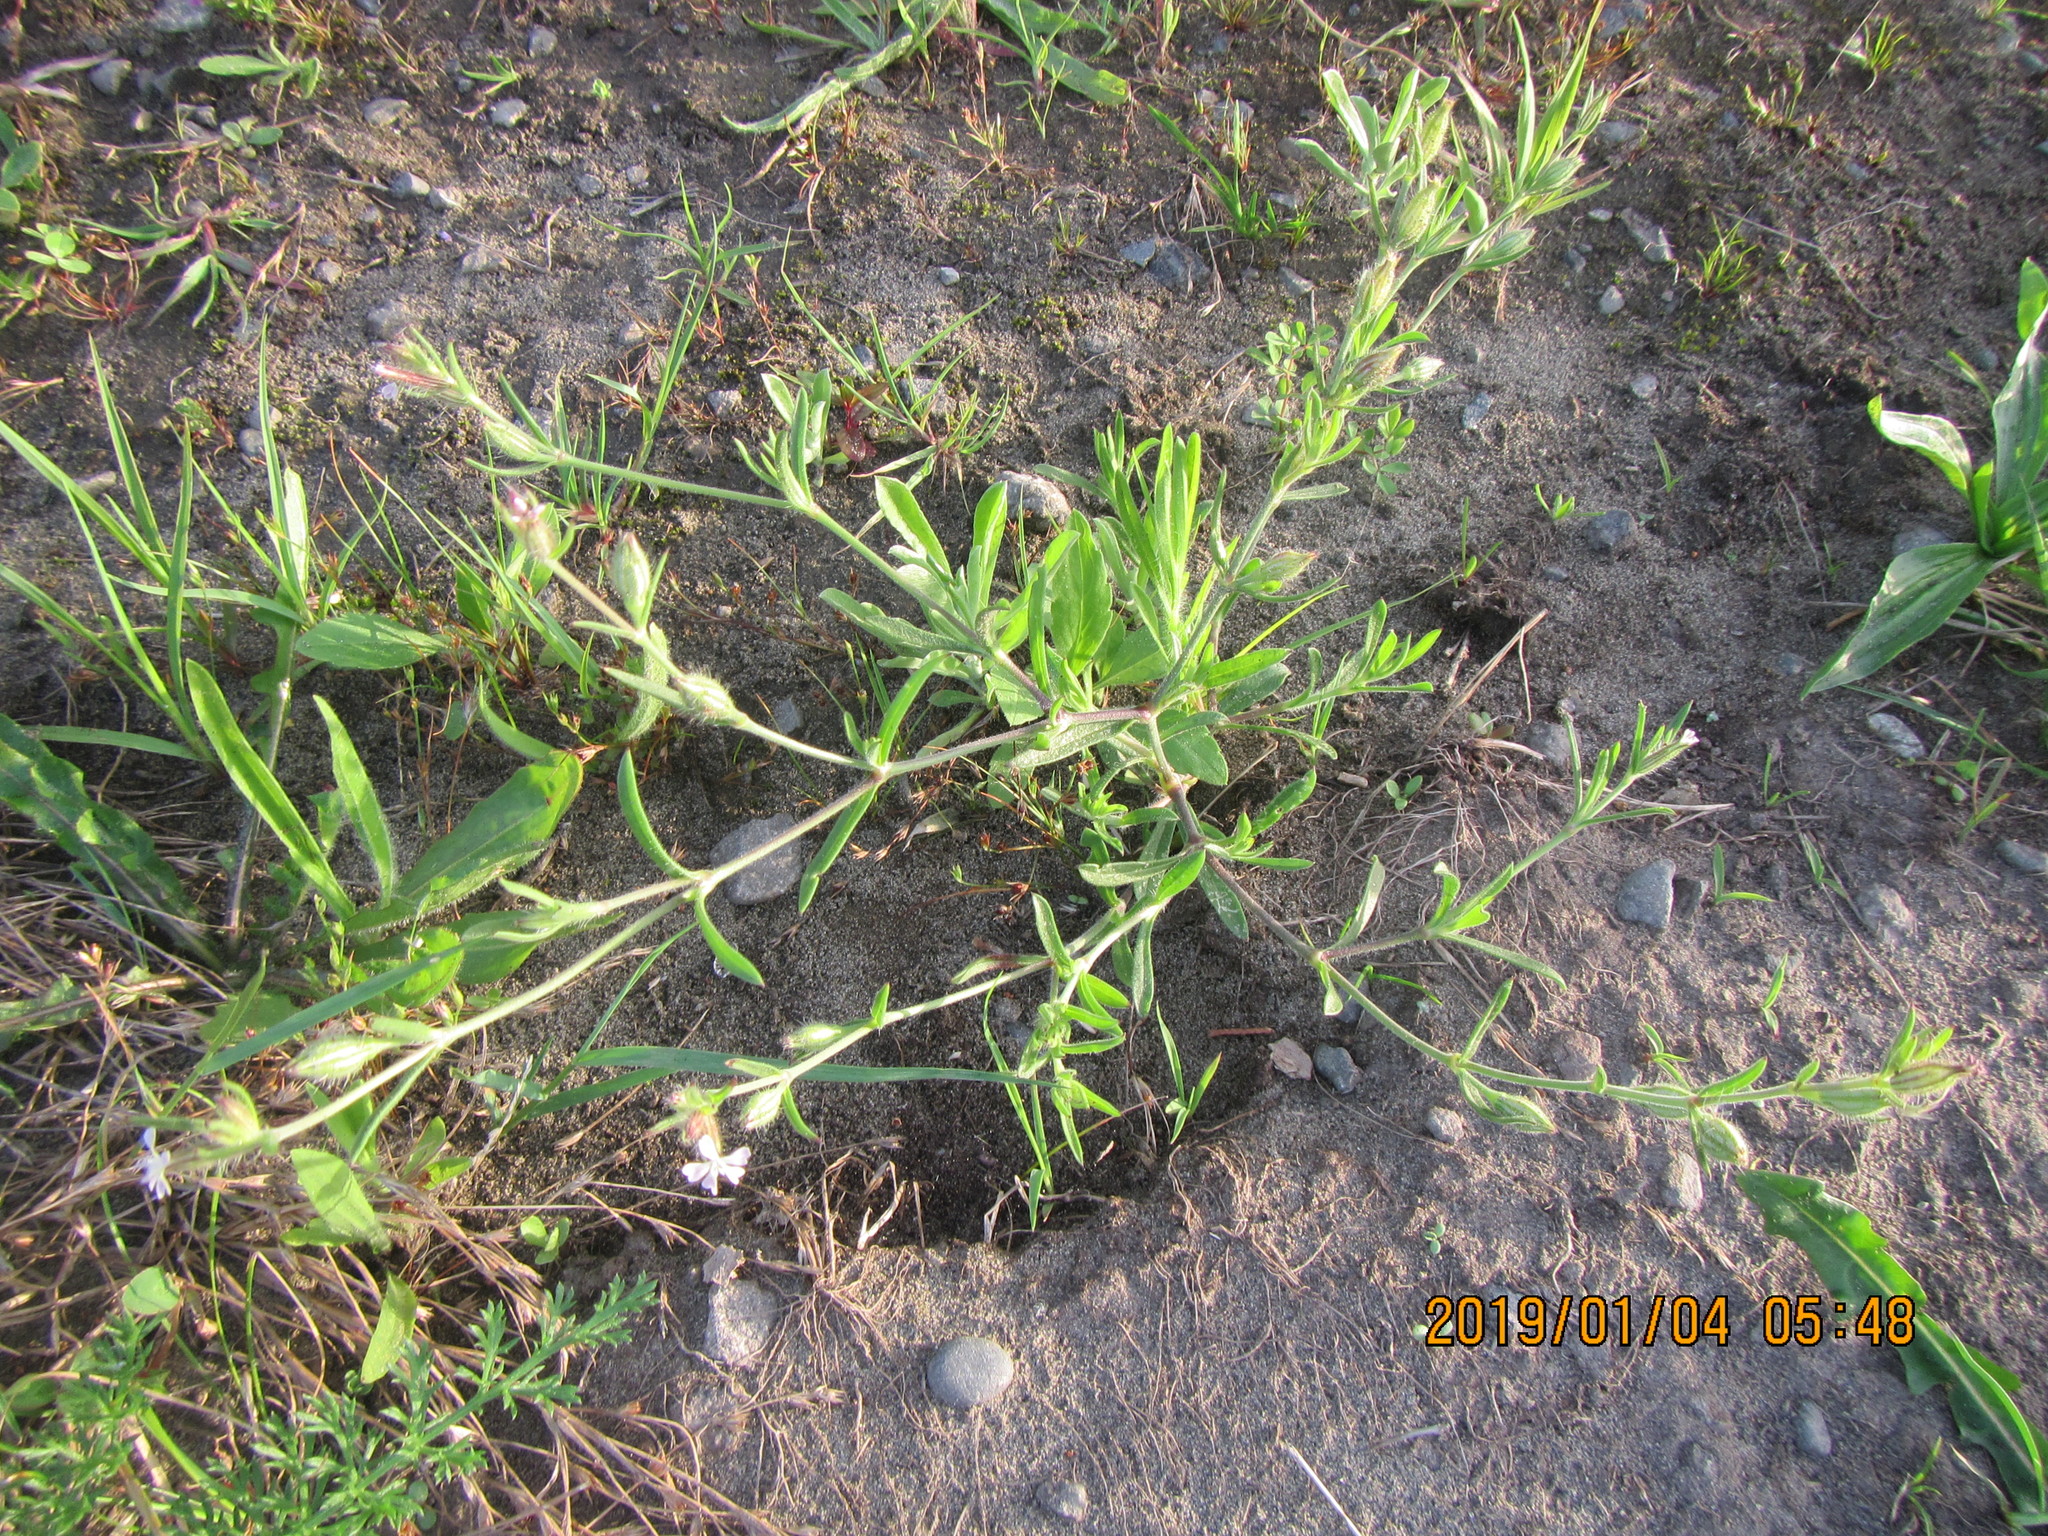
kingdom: Plantae
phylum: Tracheophyta
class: Magnoliopsida
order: Caryophyllales
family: Caryophyllaceae
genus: Silene
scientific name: Silene gallica
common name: Small-flowered catchfly
